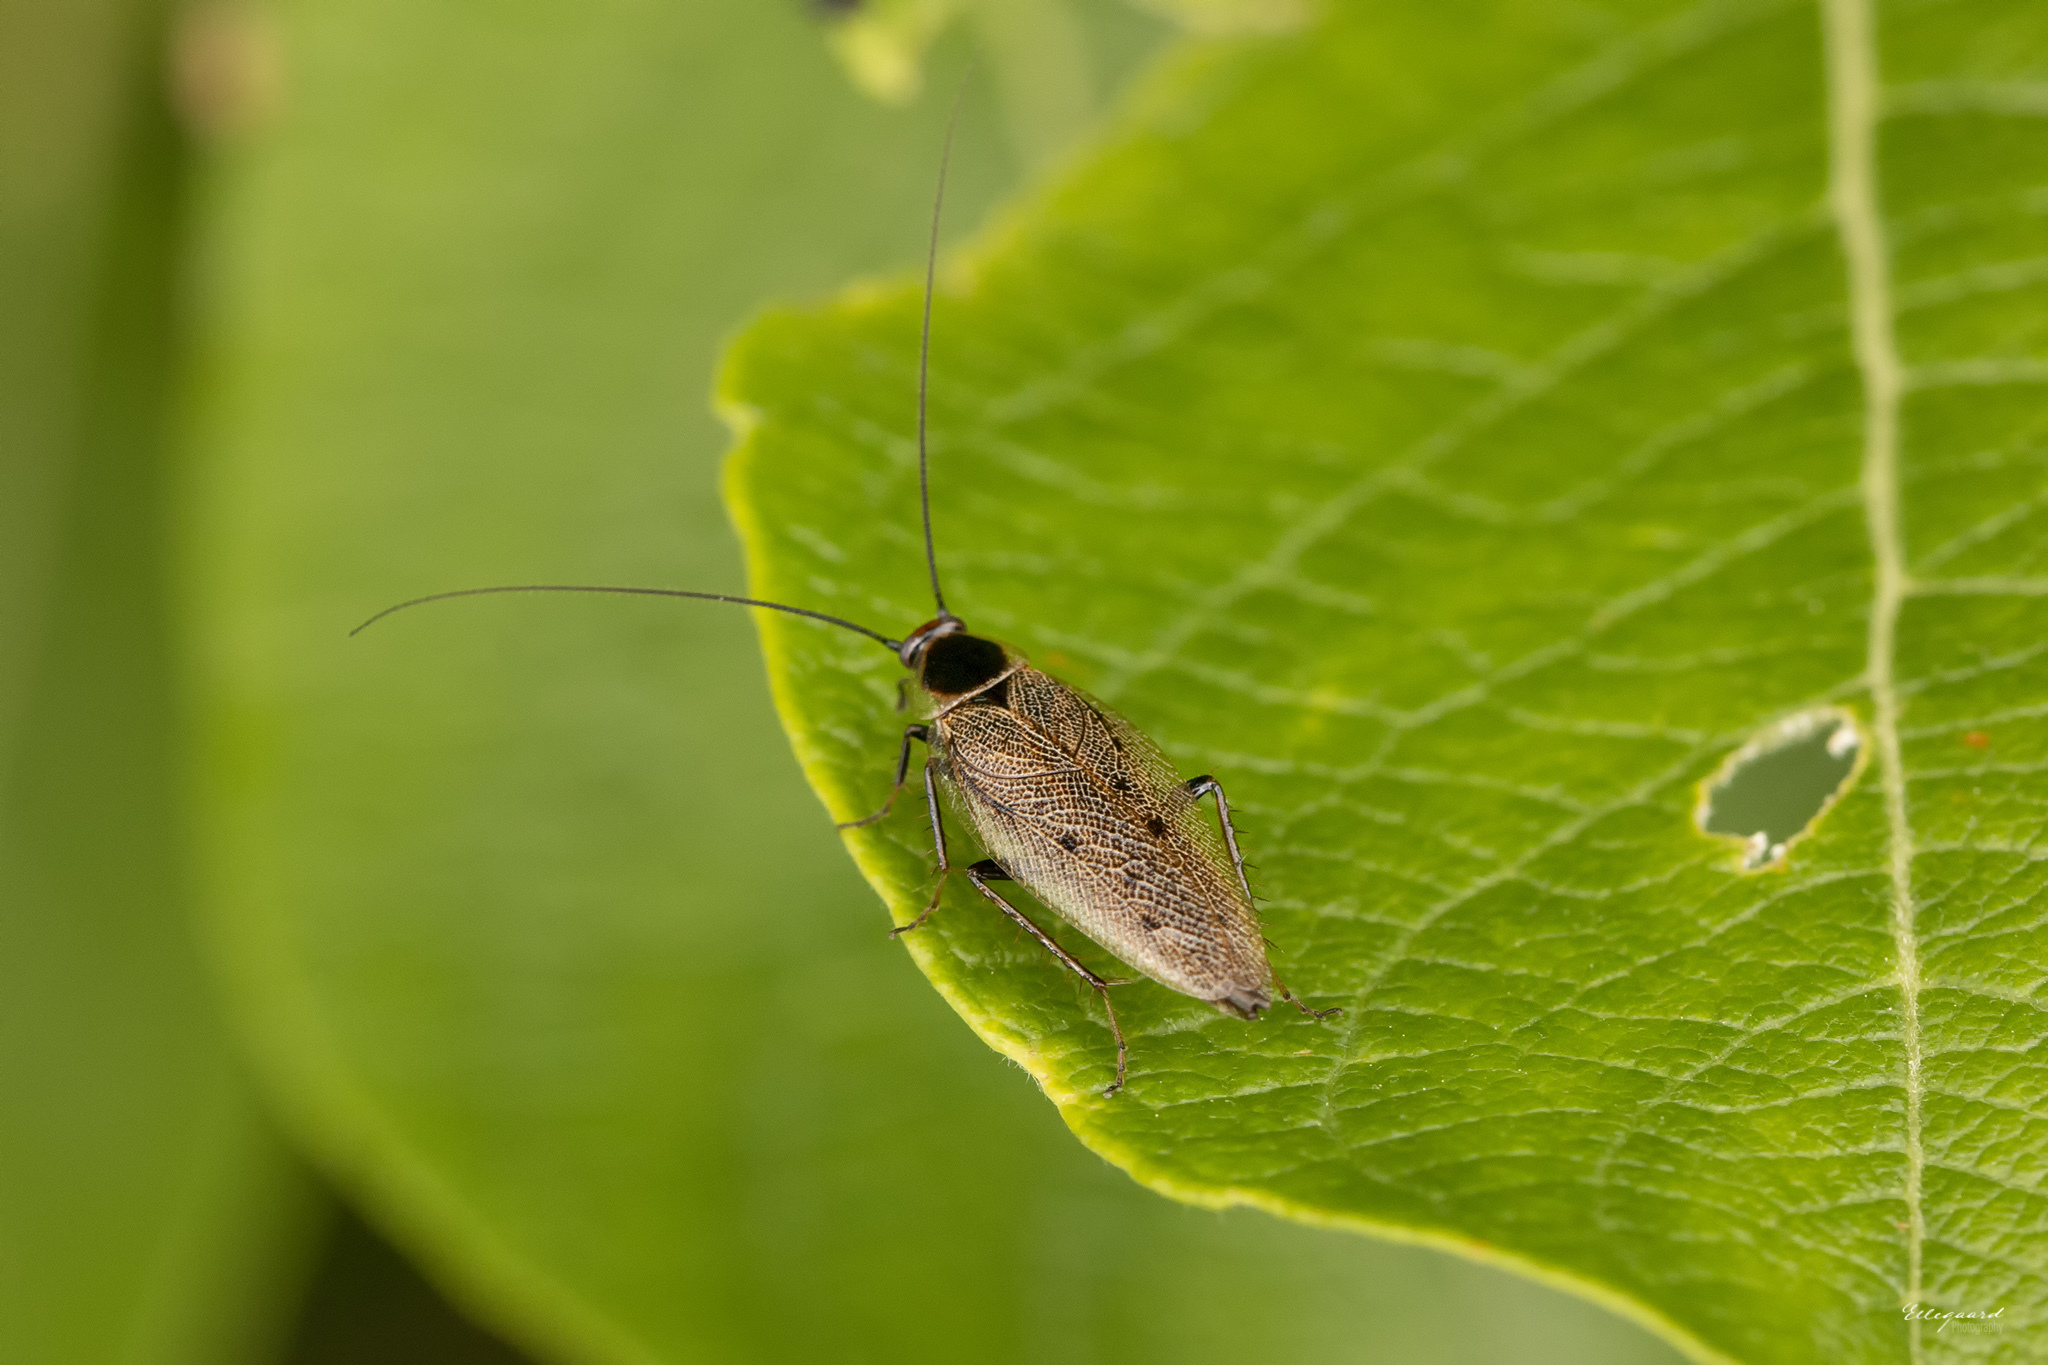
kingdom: Animalia
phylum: Arthropoda
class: Insecta
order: Blattodea
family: Ectobiidae
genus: Ectobius
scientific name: Ectobius lapponicus
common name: Dusky cockroach
